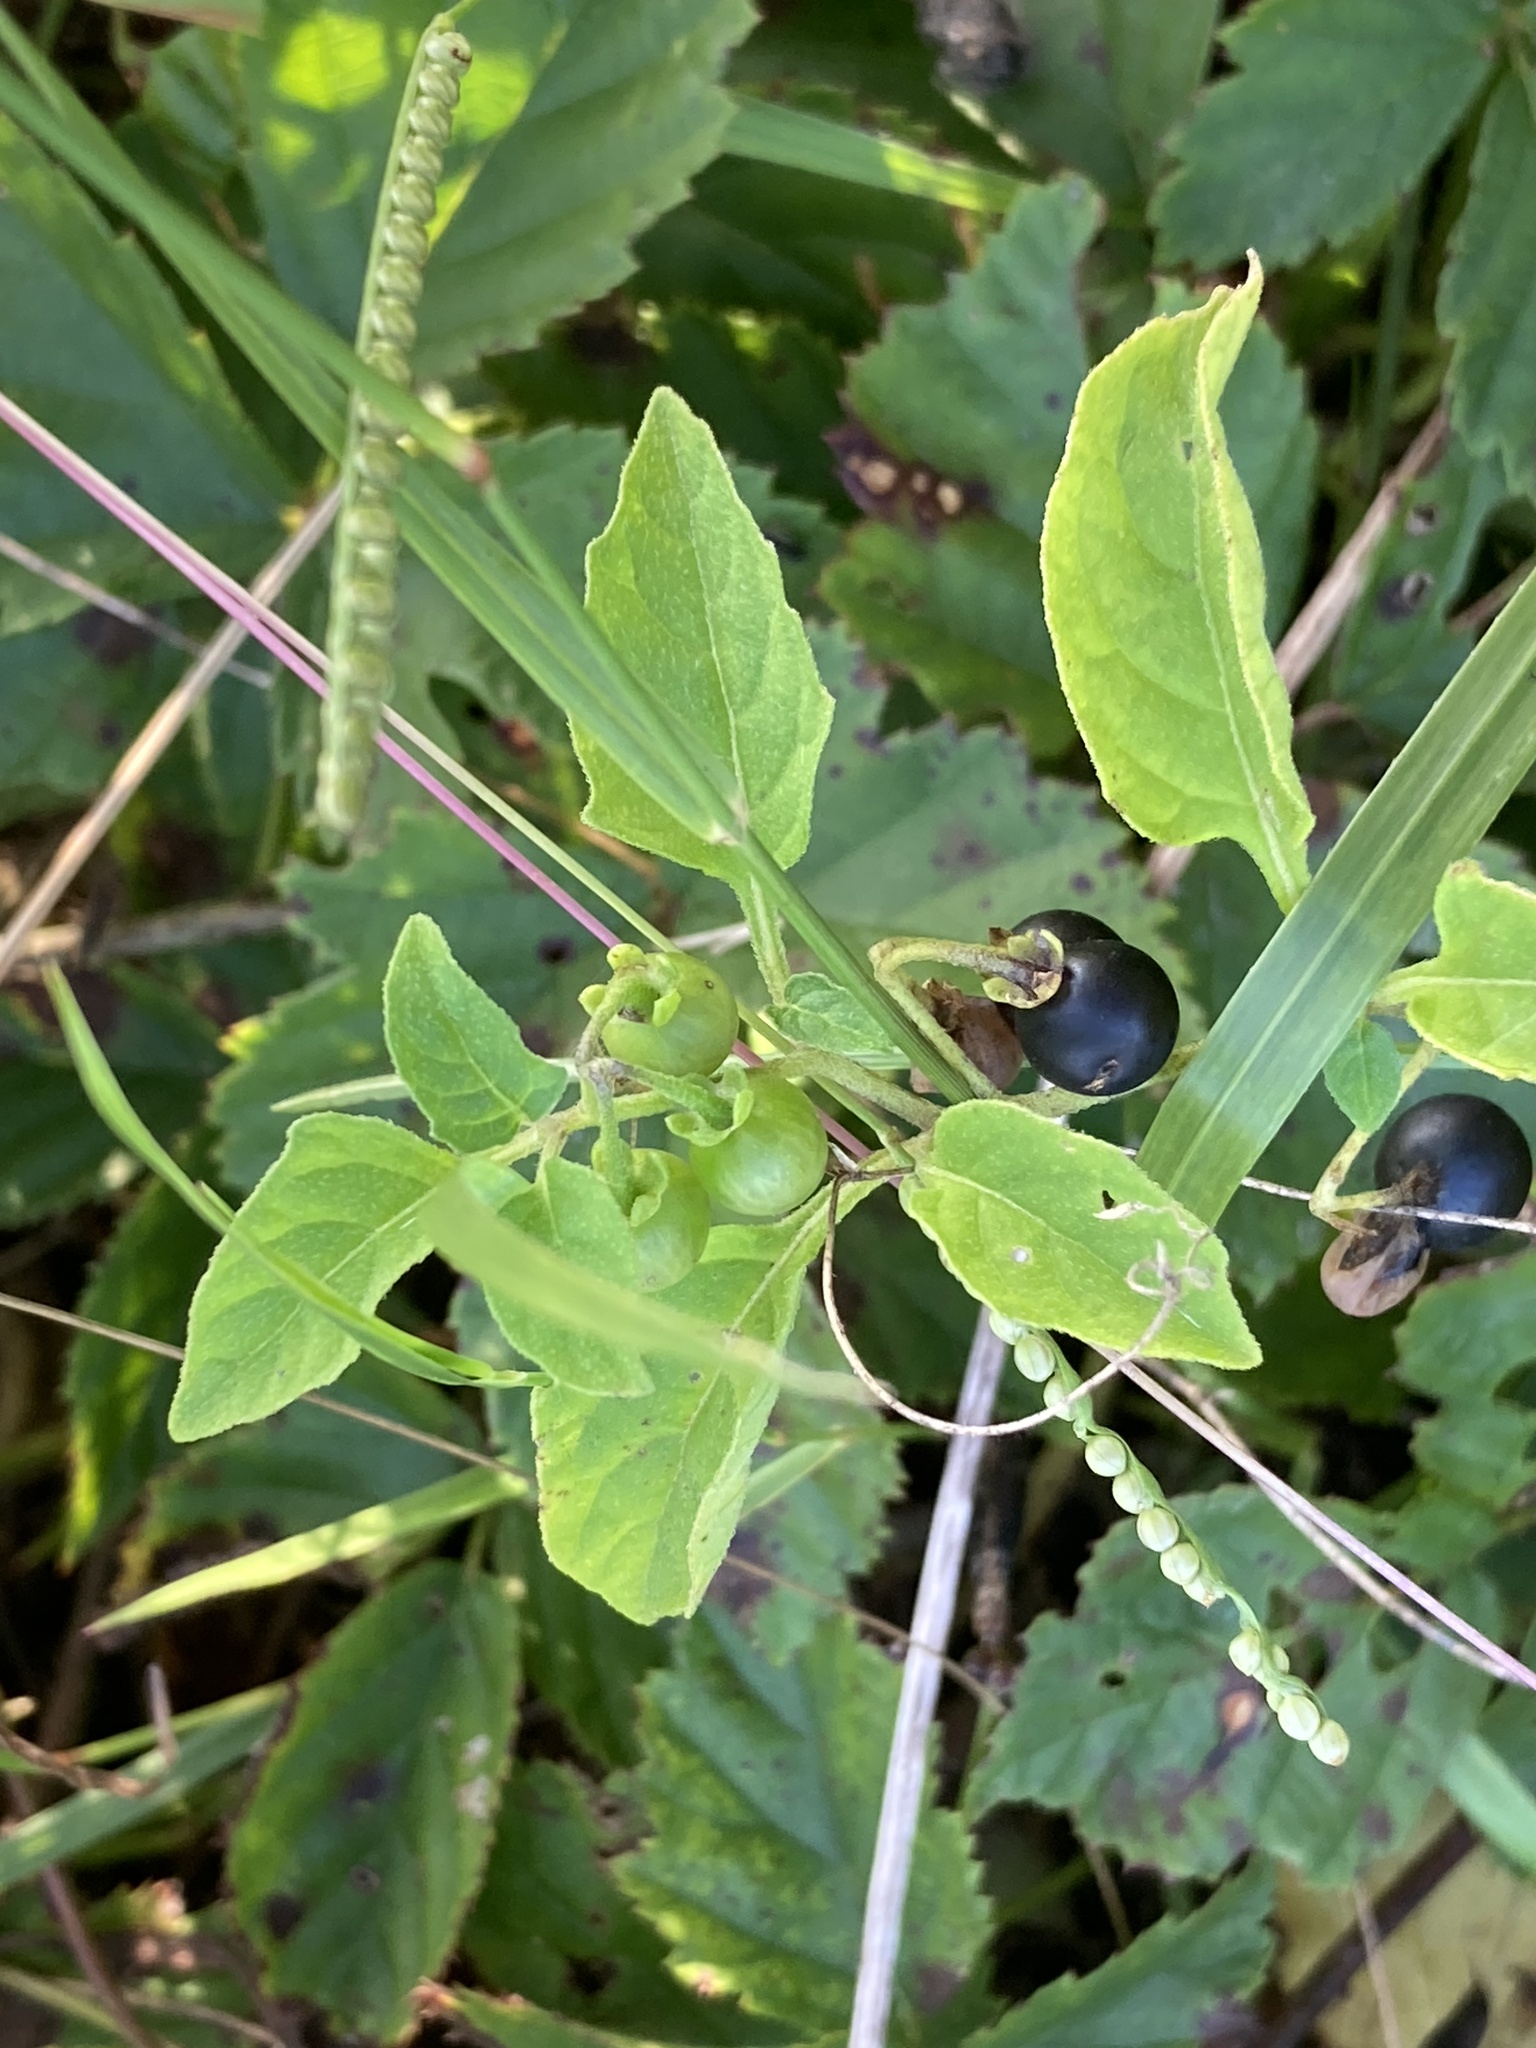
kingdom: Plantae
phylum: Tracheophyta
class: Magnoliopsida
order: Solanales
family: Solanaceae
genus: Solanum
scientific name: Solanum emulans
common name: Eastern black nightshade
